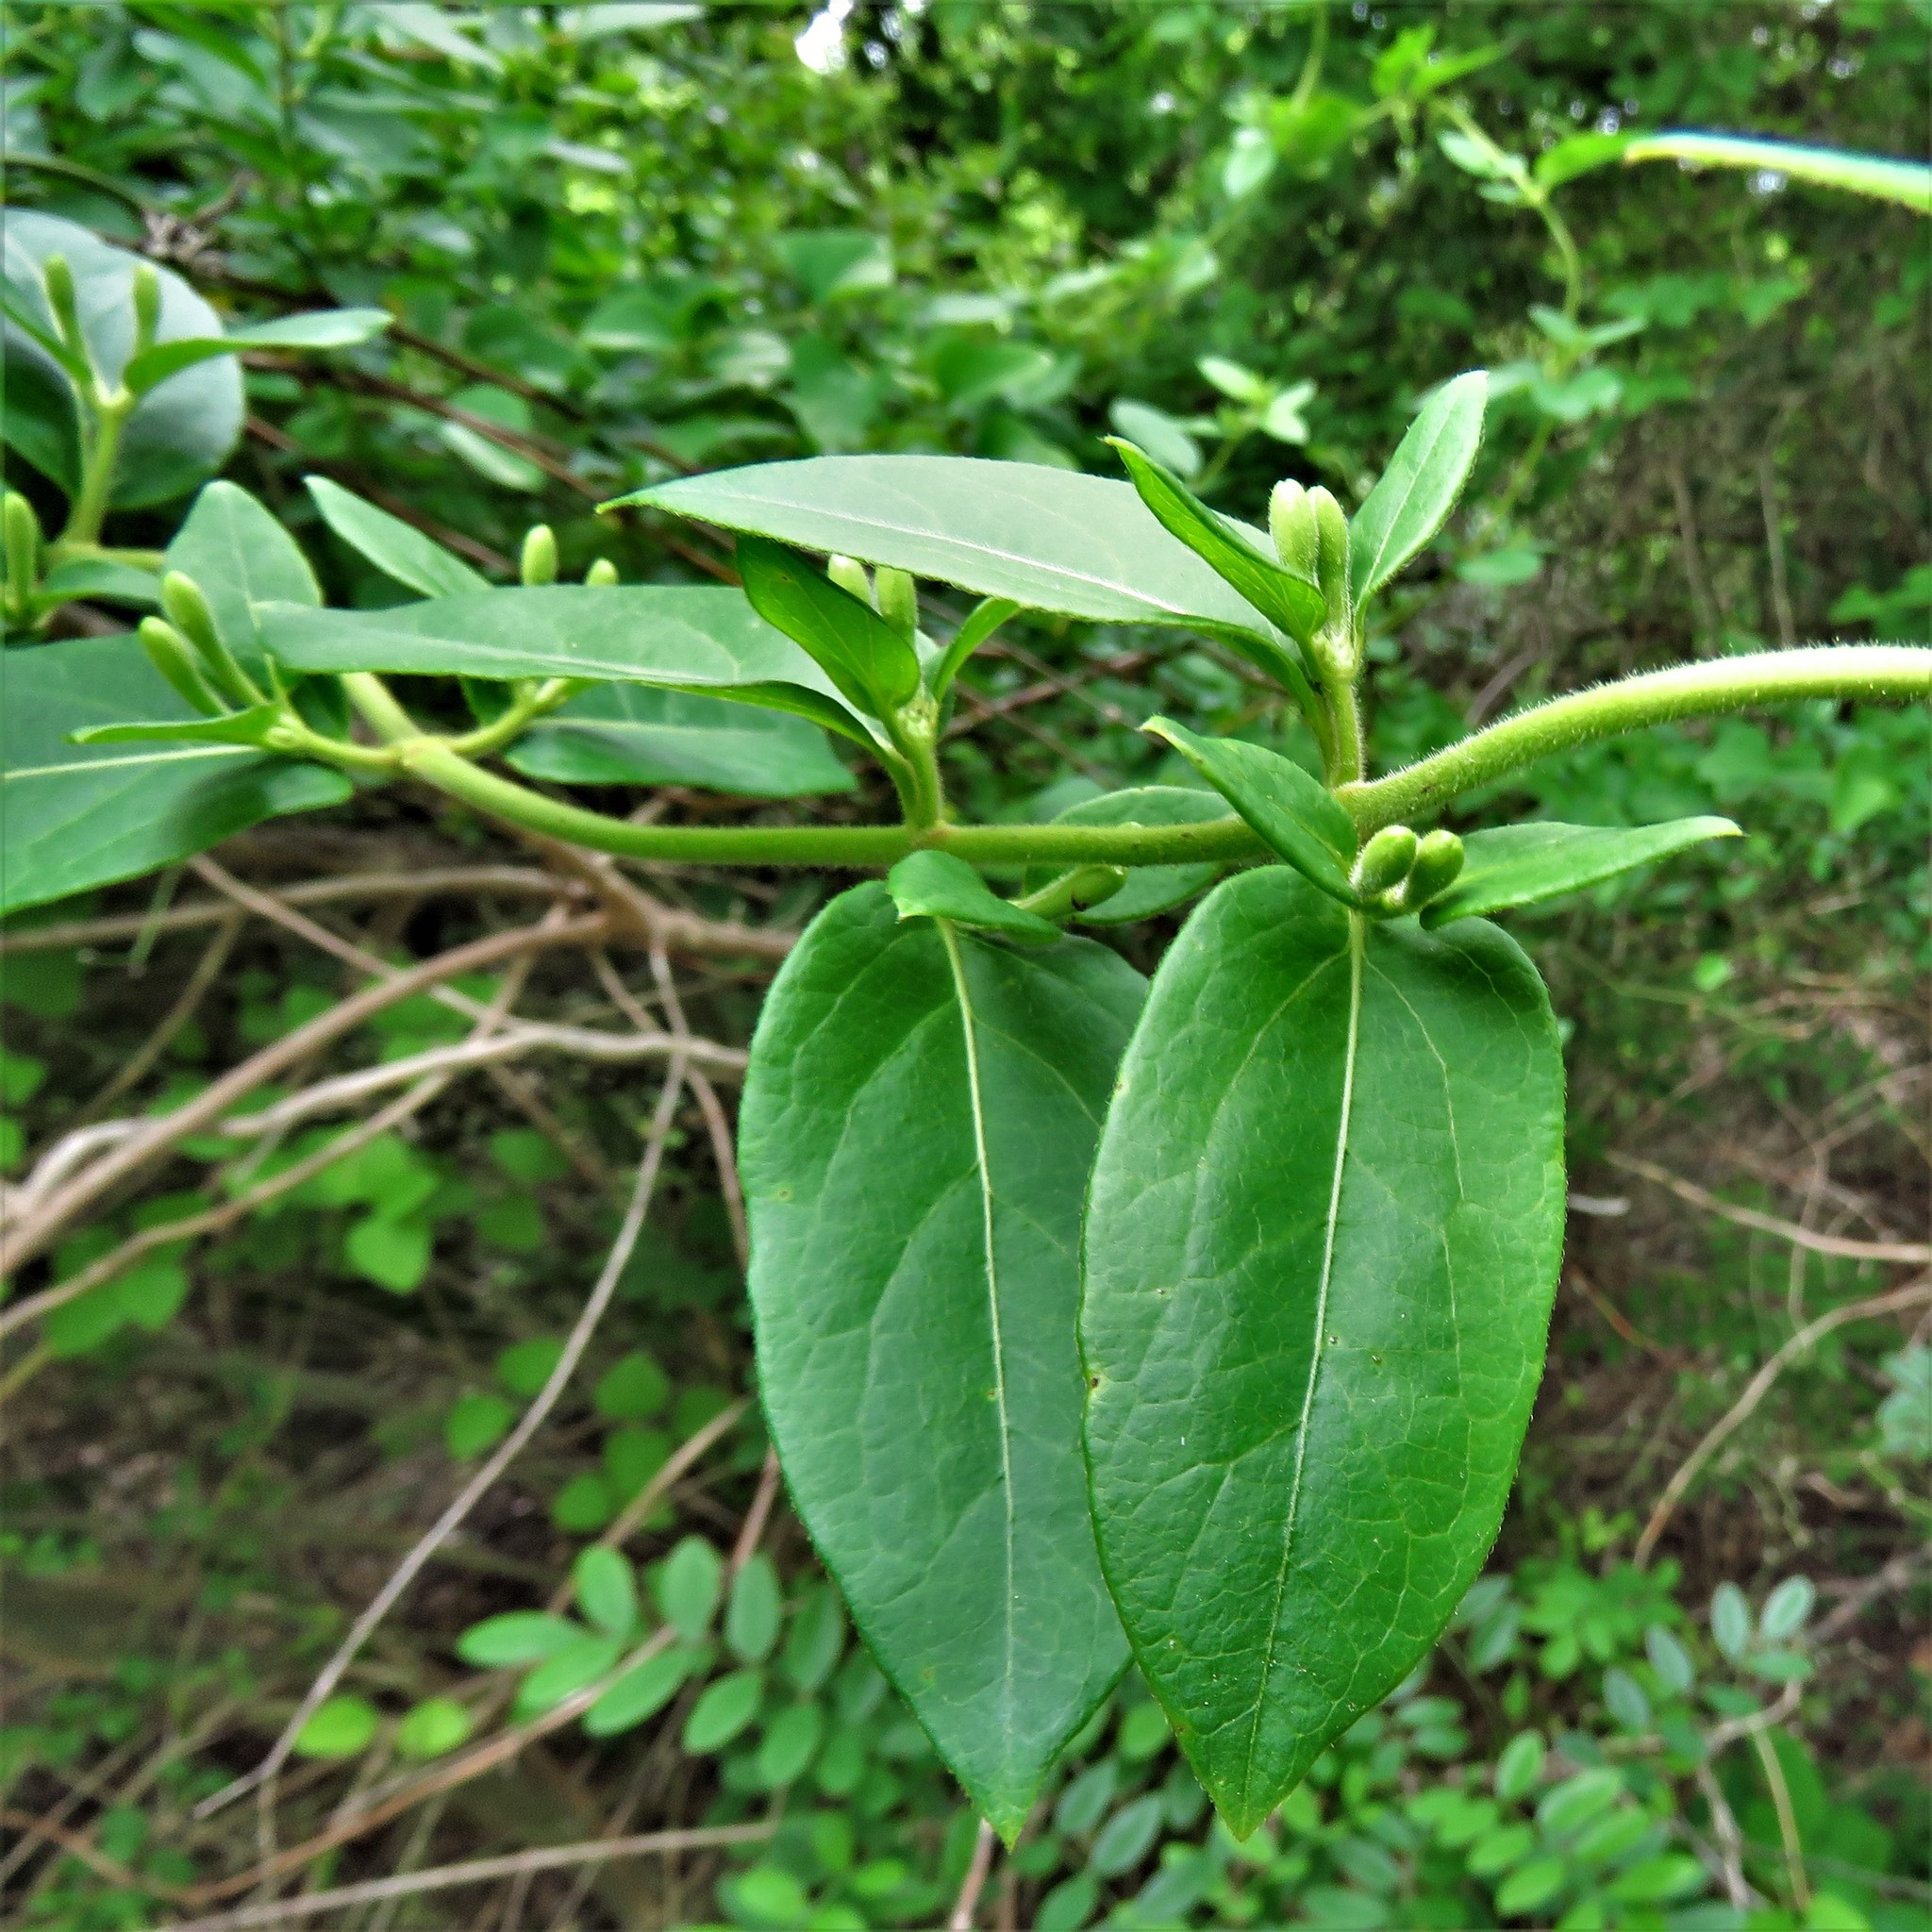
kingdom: Plantae
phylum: Tracheophyta
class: Magnoliopsida
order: Dipsacales
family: Caprifoliaceae
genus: Lonicera
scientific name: Lonicera japonica
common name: Japanese honeysuckle
